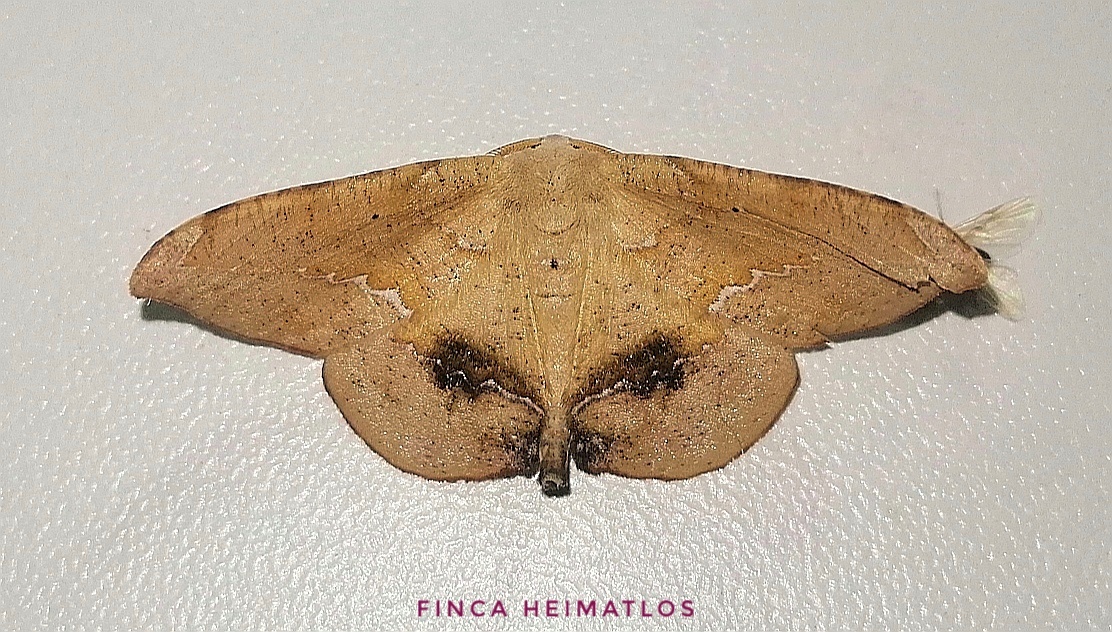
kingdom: Animalia
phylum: Arthropoda
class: Insecta
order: Lepidoptera
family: Geometridae
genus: Patalene
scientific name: Patalene asychisaria
